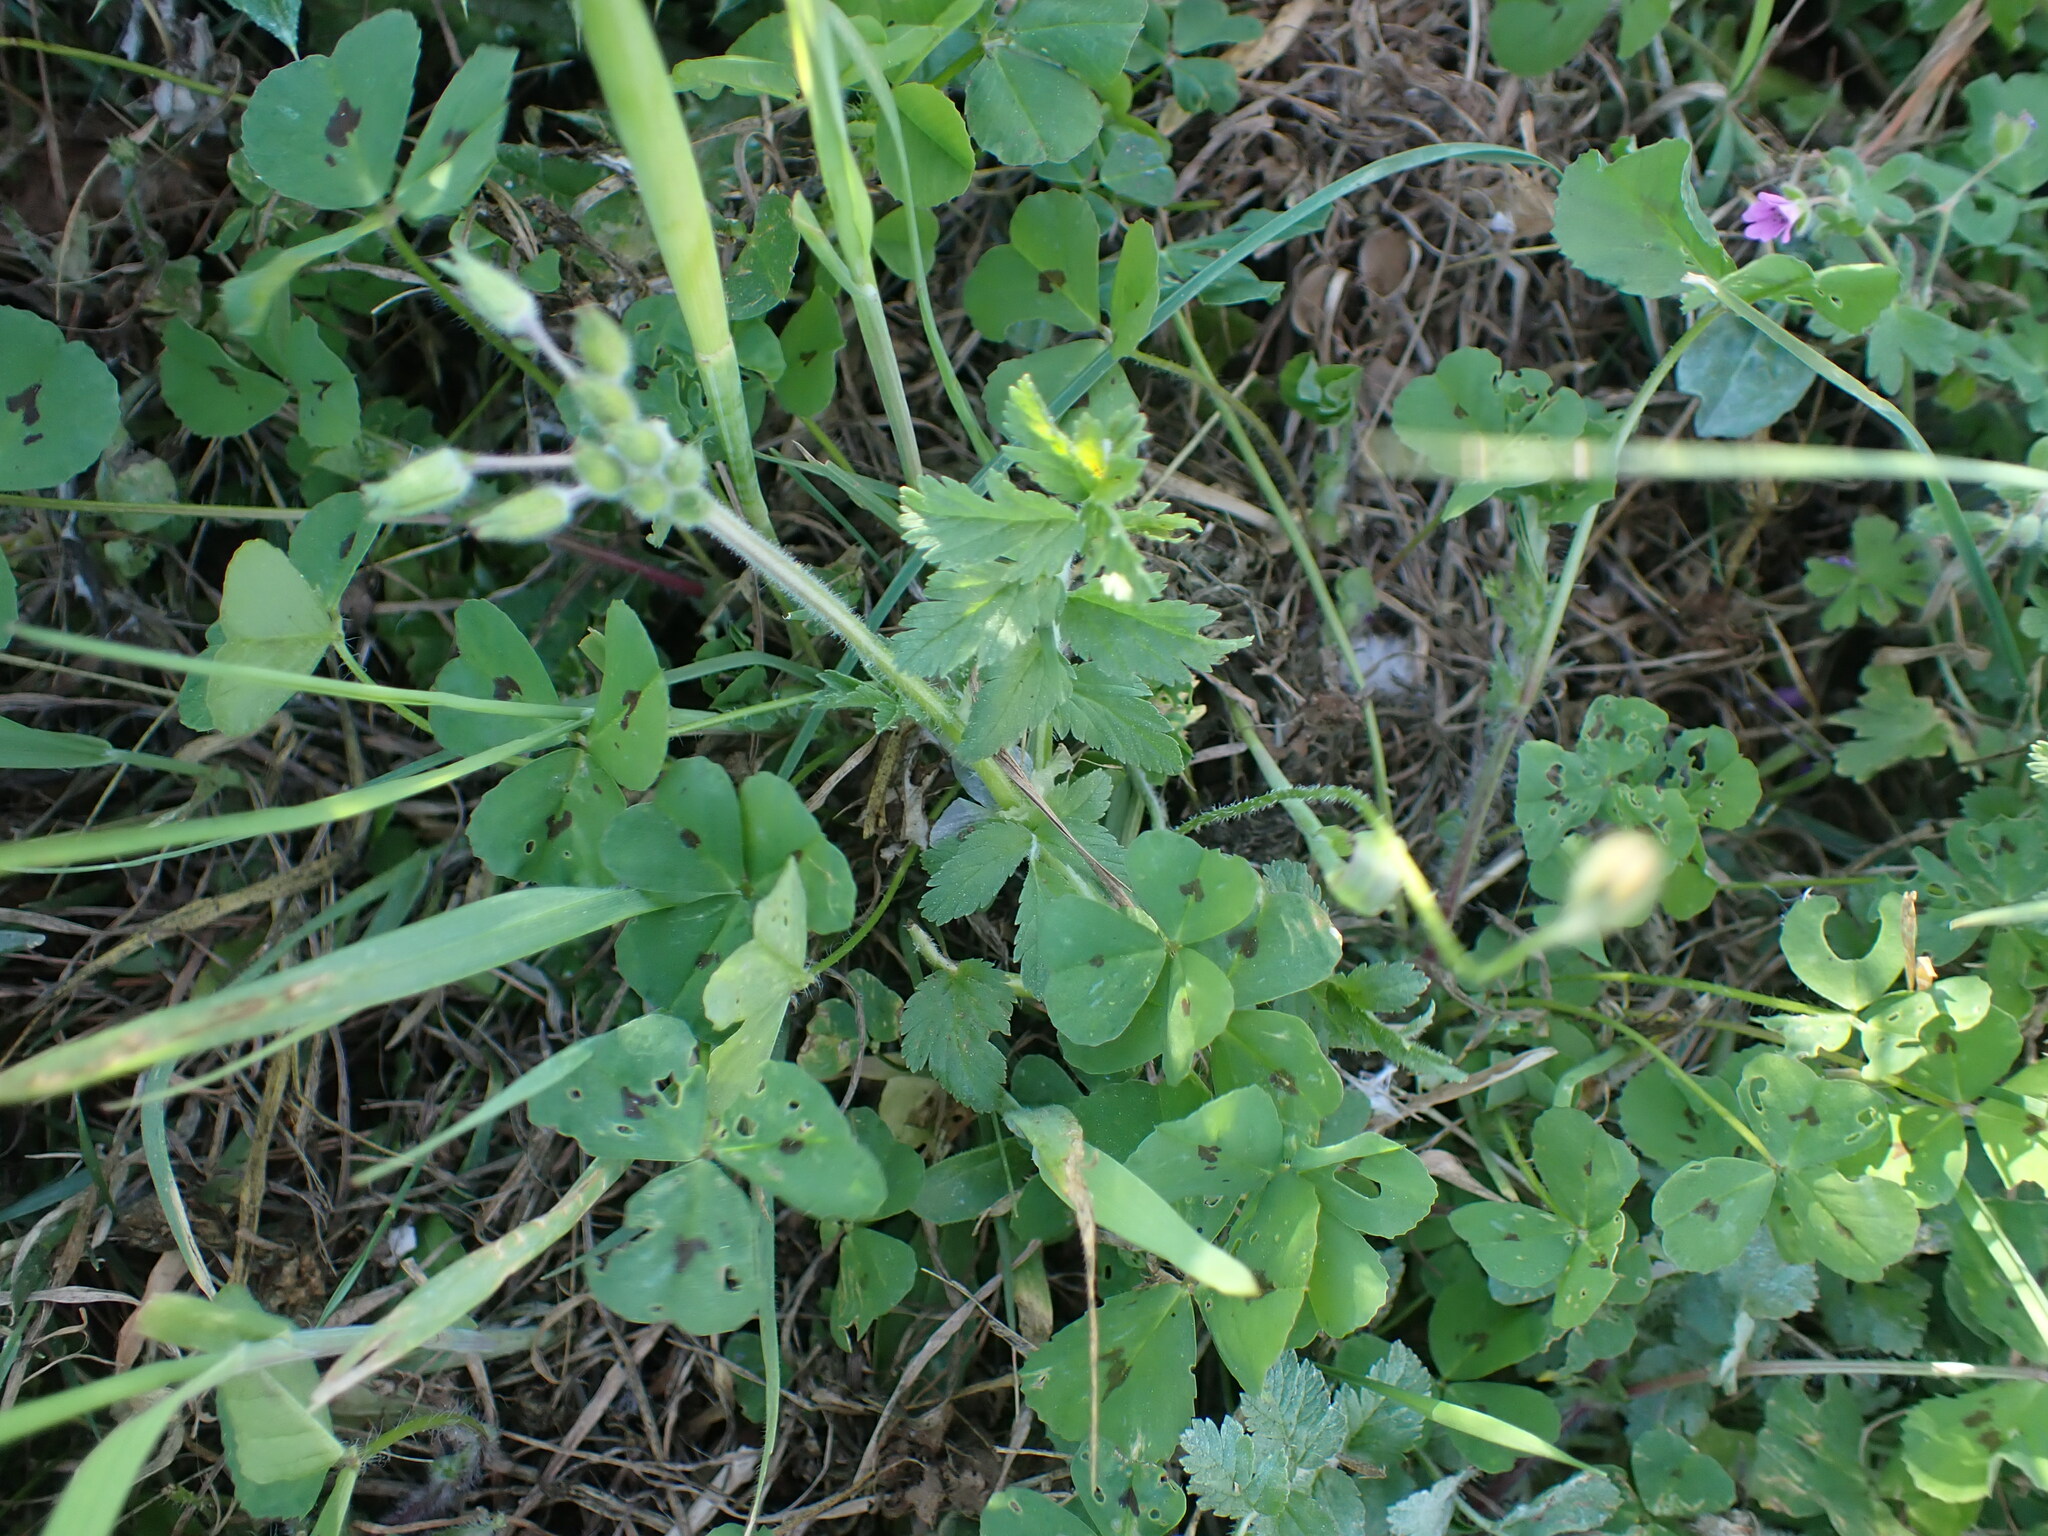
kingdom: Plantae
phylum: Tracheophyta
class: Magnoliopsida
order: Fabales
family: Fabaceae
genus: Medicago
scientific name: Medicago arabica
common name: Spotted medick
